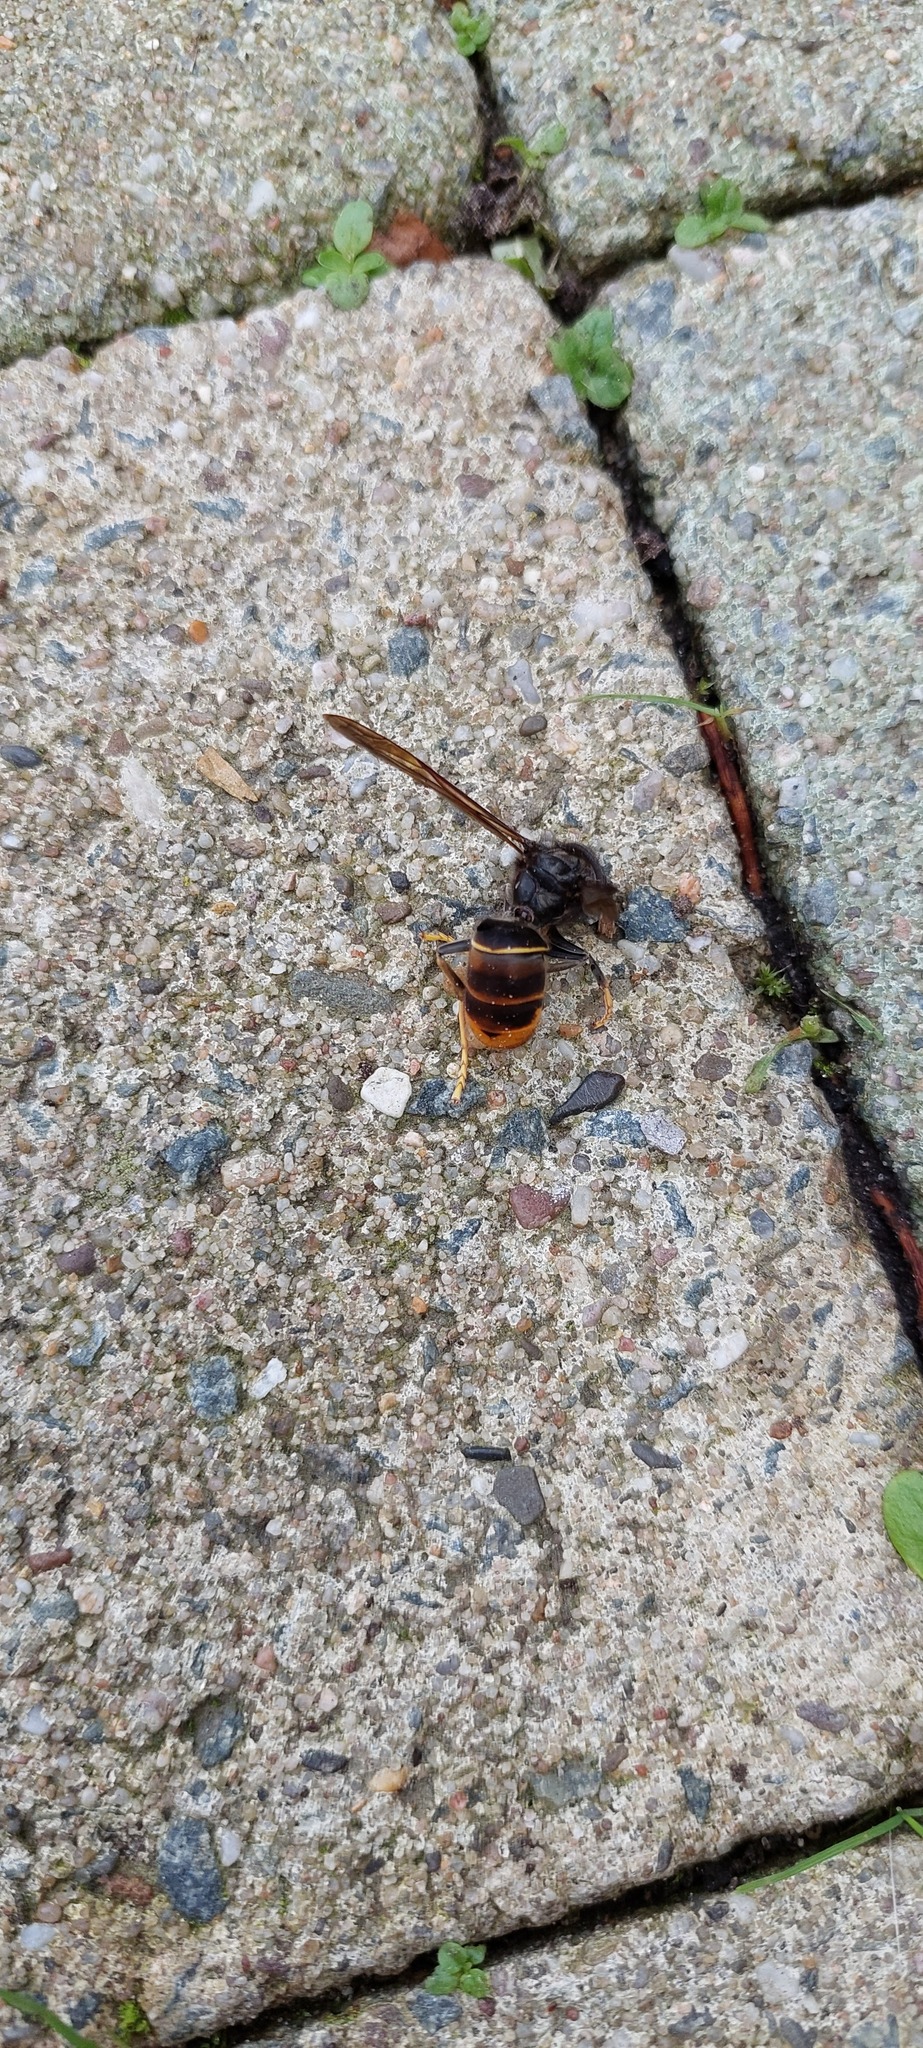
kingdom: Animalia
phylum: Arthropoda
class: Insecta
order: Hymenoptera
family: Vespidae
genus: Vespa
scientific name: Vespa velutina
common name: Asian hornet
